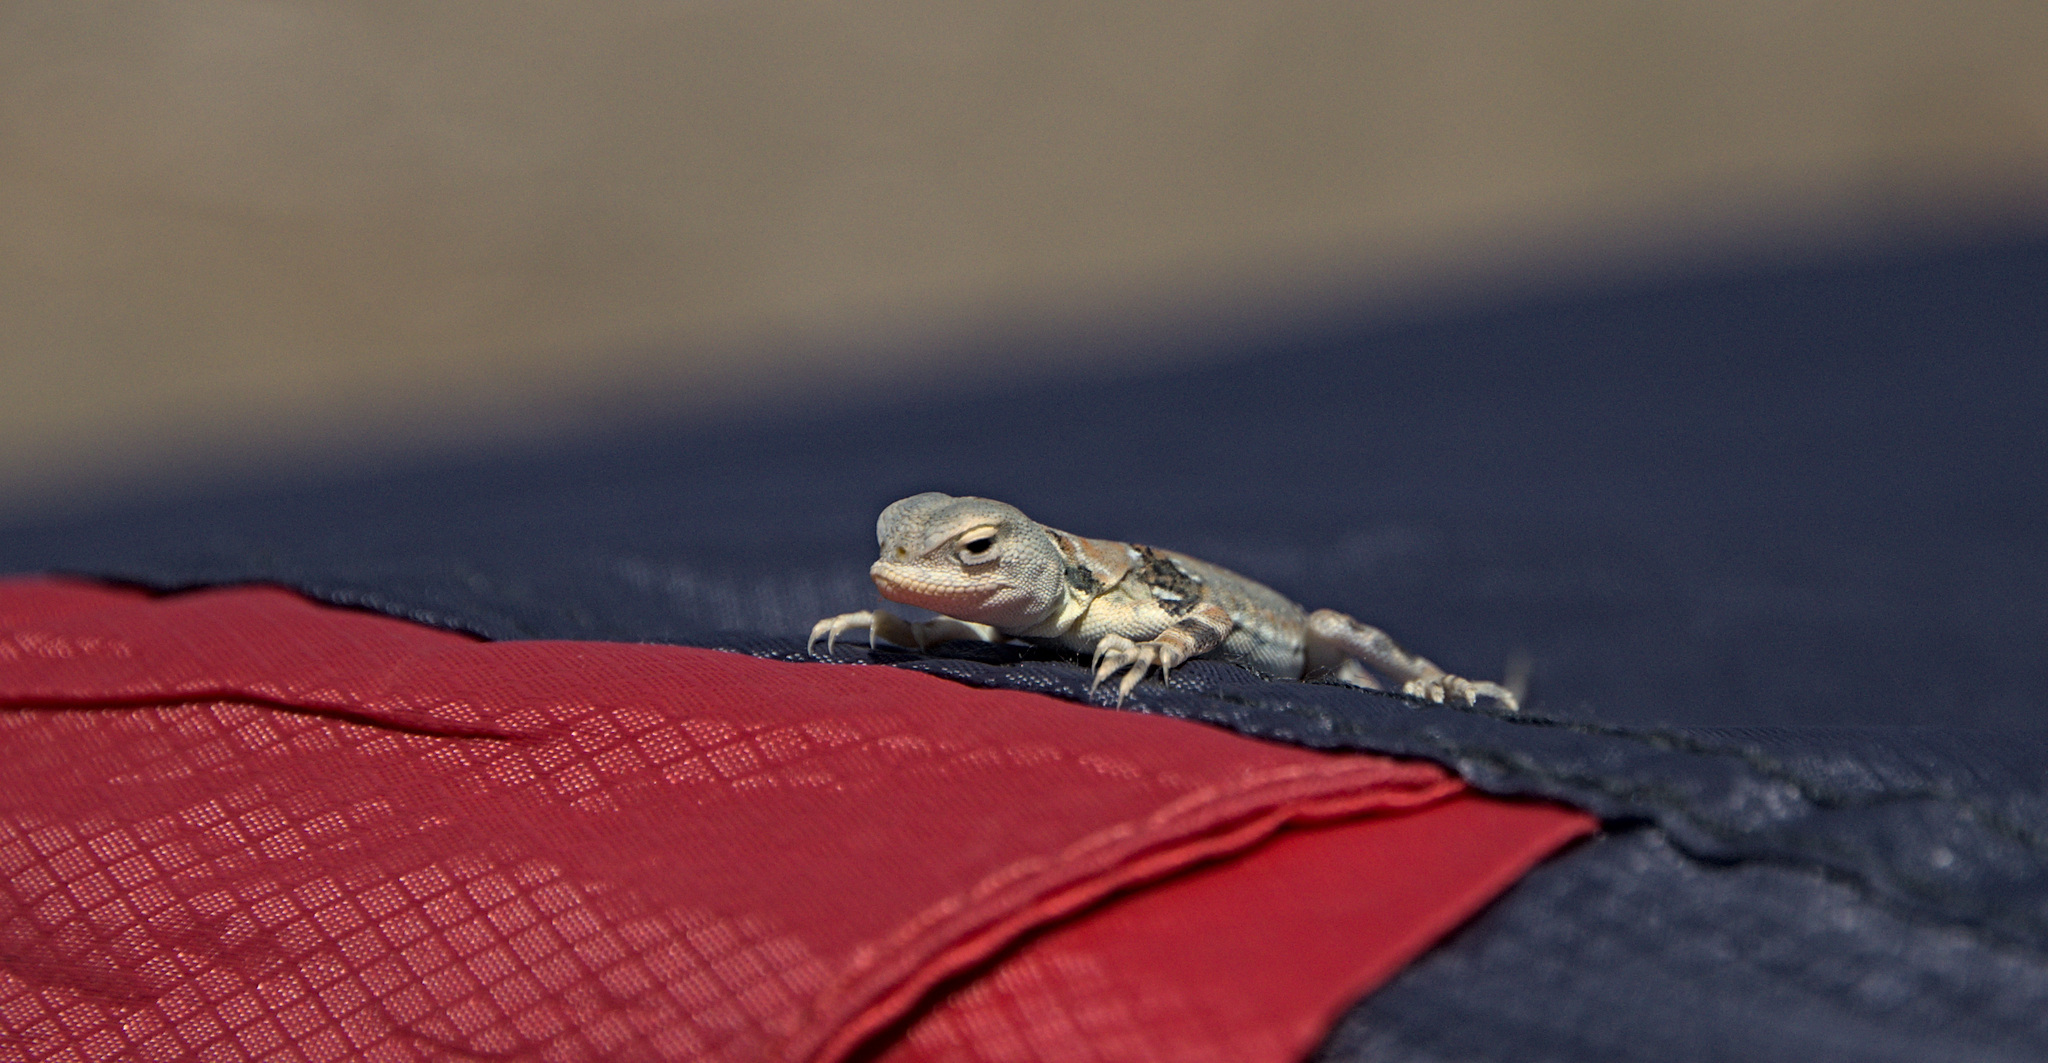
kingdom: Animalia
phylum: Chordata
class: Squamata
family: Agamidae
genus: Phrynocephalus
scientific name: Phrynocephalus versicolor
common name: Tuvan toad-headed agama
